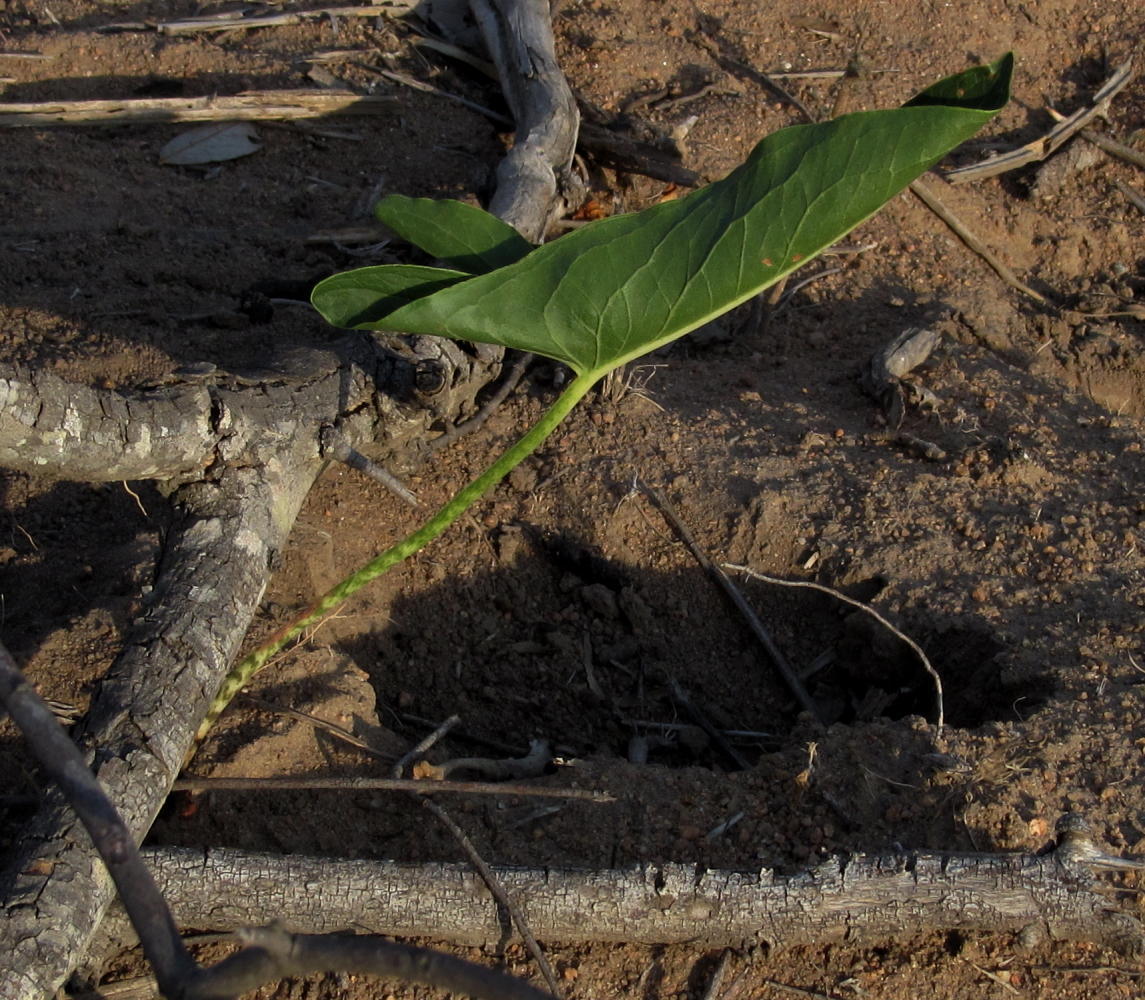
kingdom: Plantae
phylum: Tracheophyta
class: Liliopsida
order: Alismatales
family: Araceae
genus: Stylochaeton
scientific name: Stylochaeton natalensis
